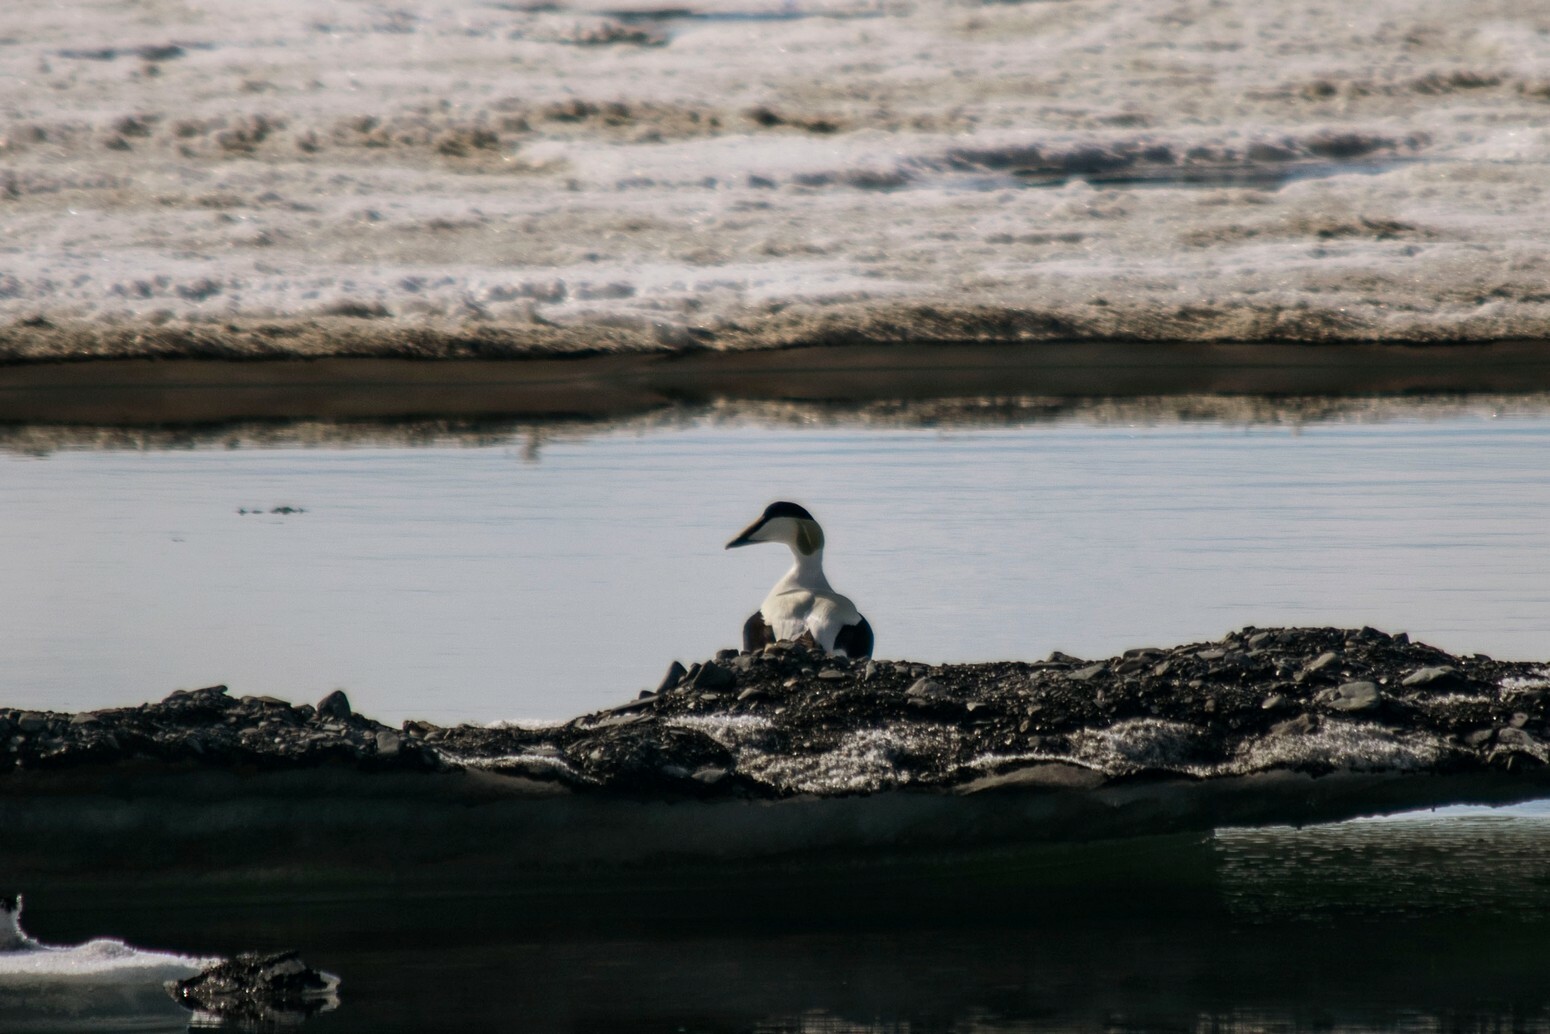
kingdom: Animalia
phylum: Chordata
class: Aves
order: Anseriformes
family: Anatidae
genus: Somateria
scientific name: Somateria mollissima
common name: Common eider
